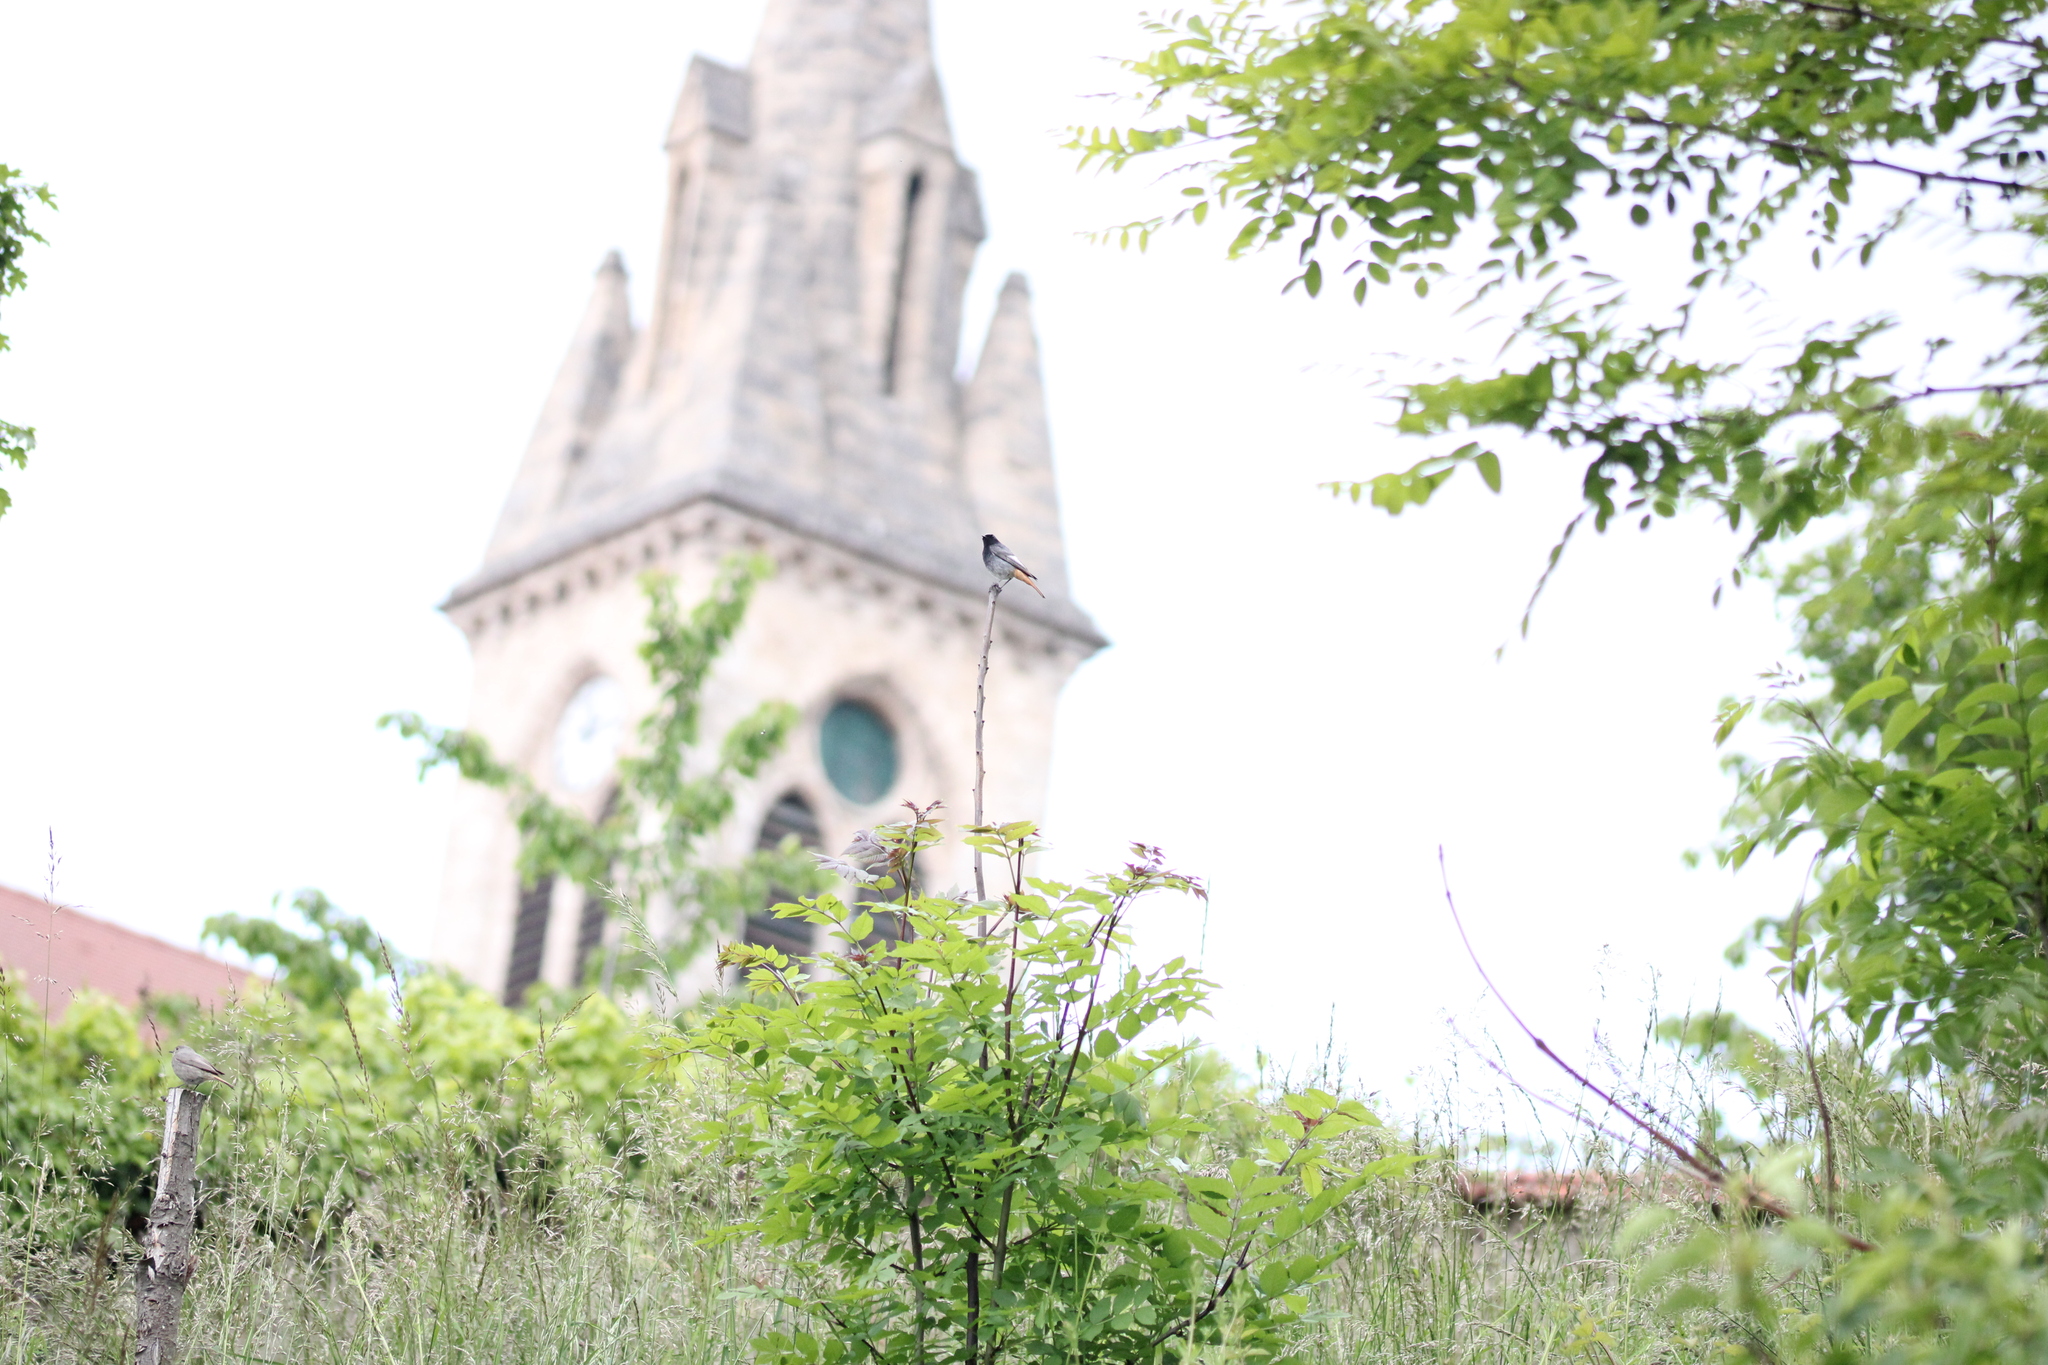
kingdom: Animalia
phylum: Chordata
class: Aves
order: Passeriformes
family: Muscicapidae
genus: Phoenicurus
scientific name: Phoenicurus ochruros
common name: Black redstart
